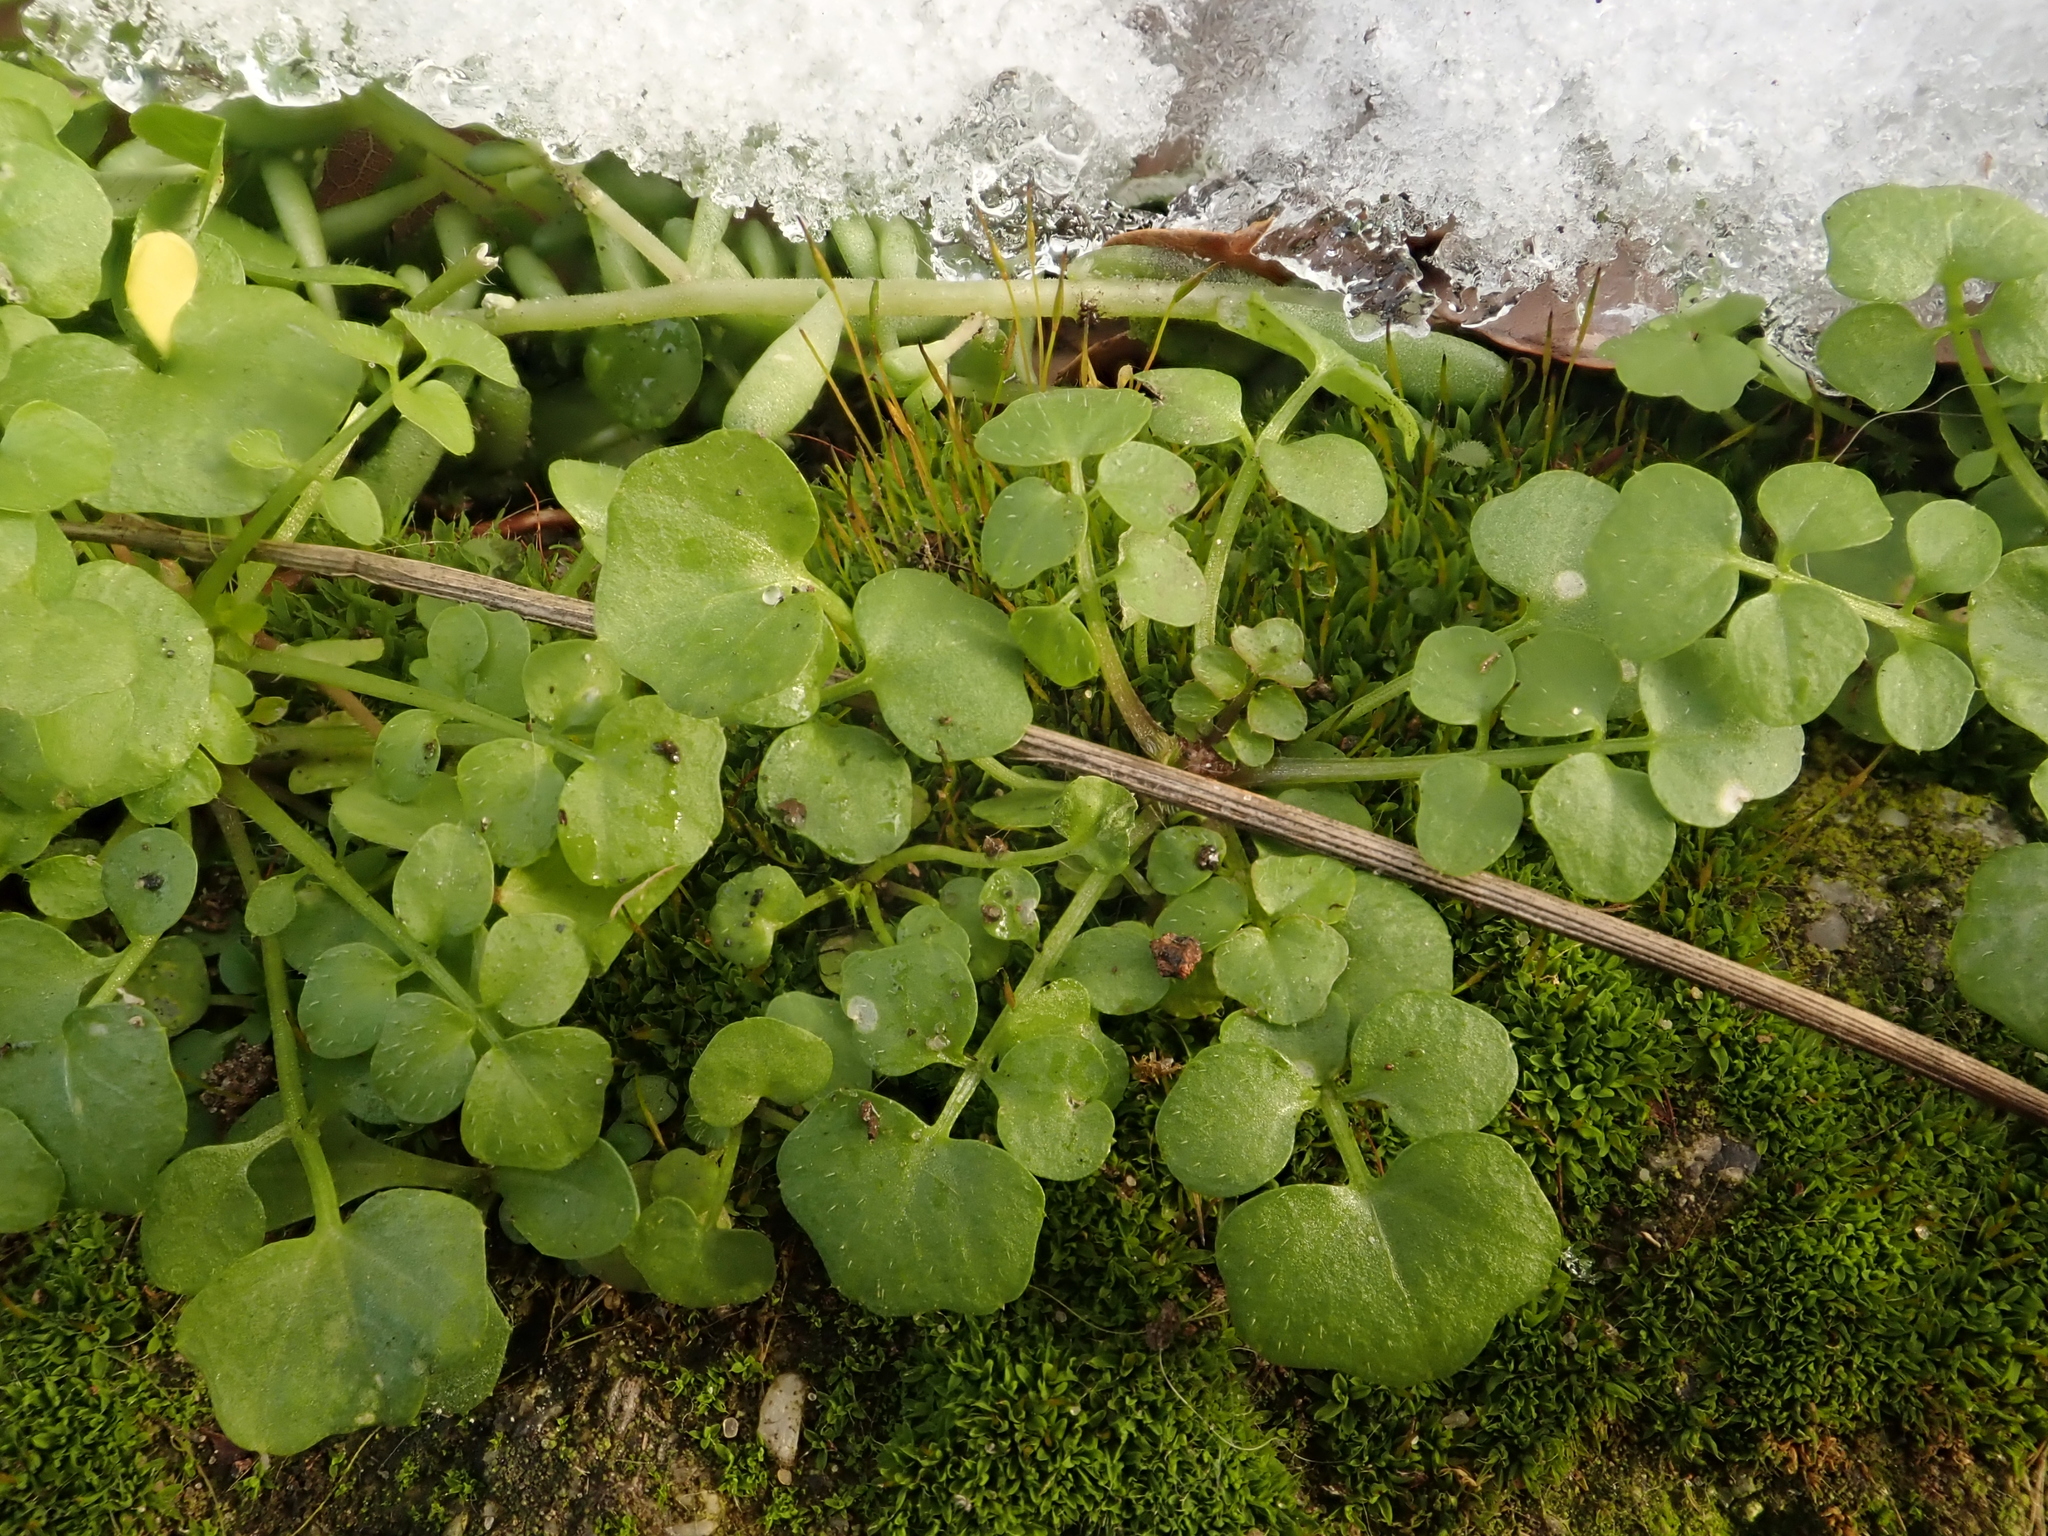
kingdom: Plantae
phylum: Tracheophyta
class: Magnoliopsida
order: Brassicales
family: Brassicaceae
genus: Cardamine
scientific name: Cardamine hirsuta
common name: Hairy bittercress
